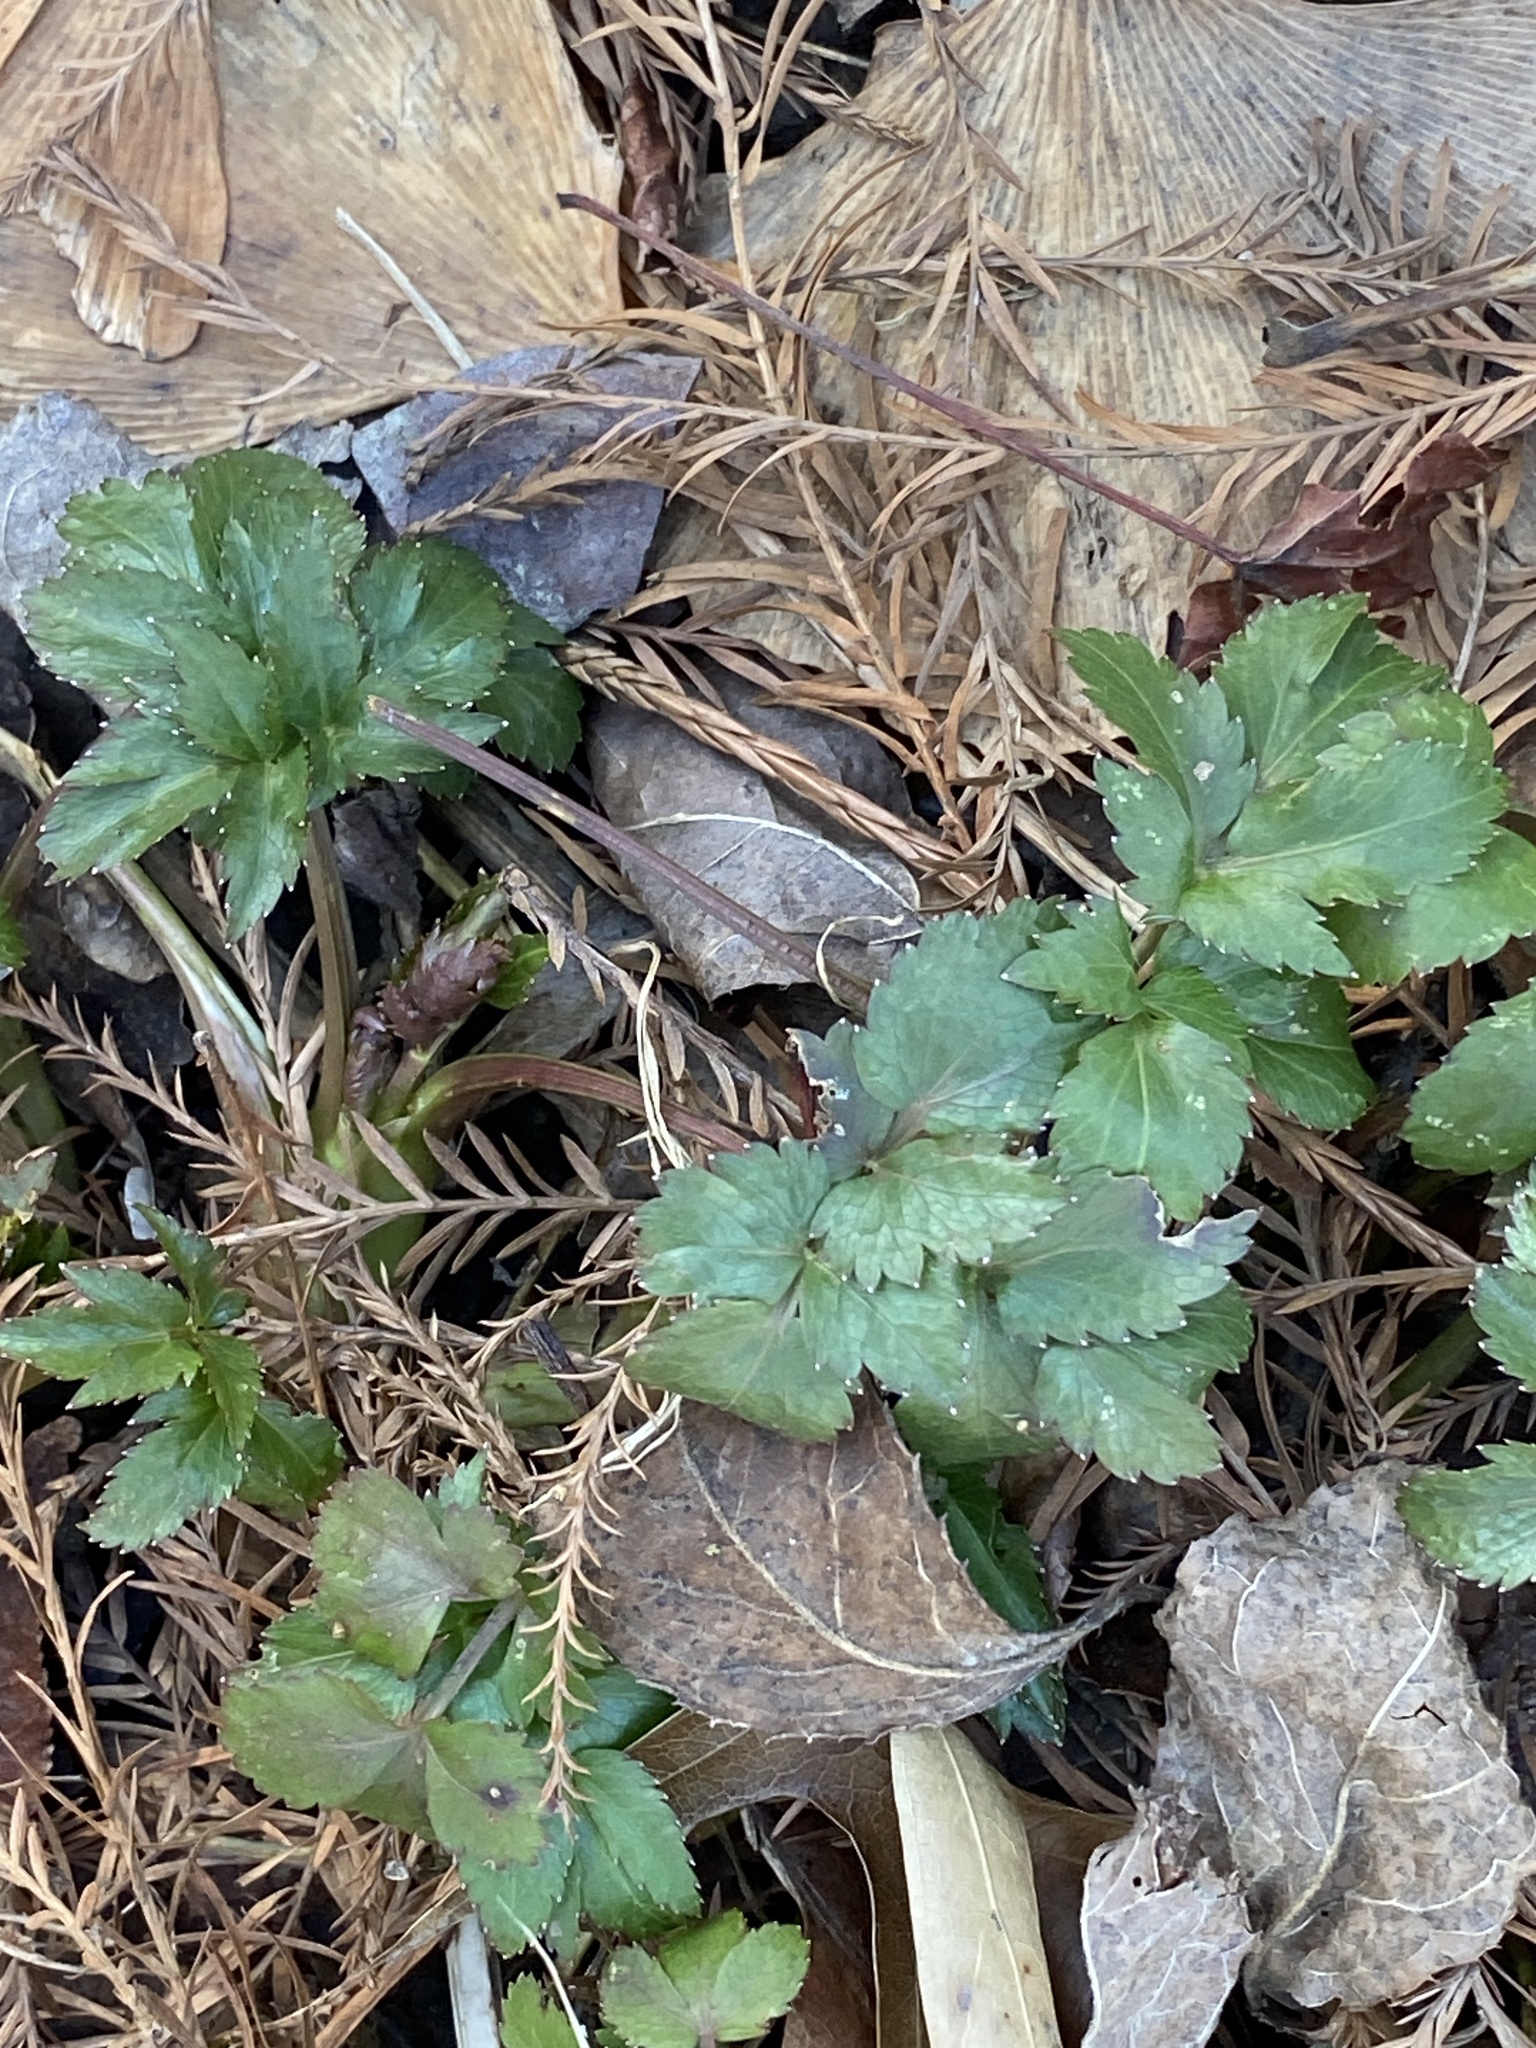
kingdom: Plantae
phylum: Tracheophyta
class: Magnoliopsida
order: Apiales
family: Apiaceae
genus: Zizia
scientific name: Zizia aurea
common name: Golden alexanders
